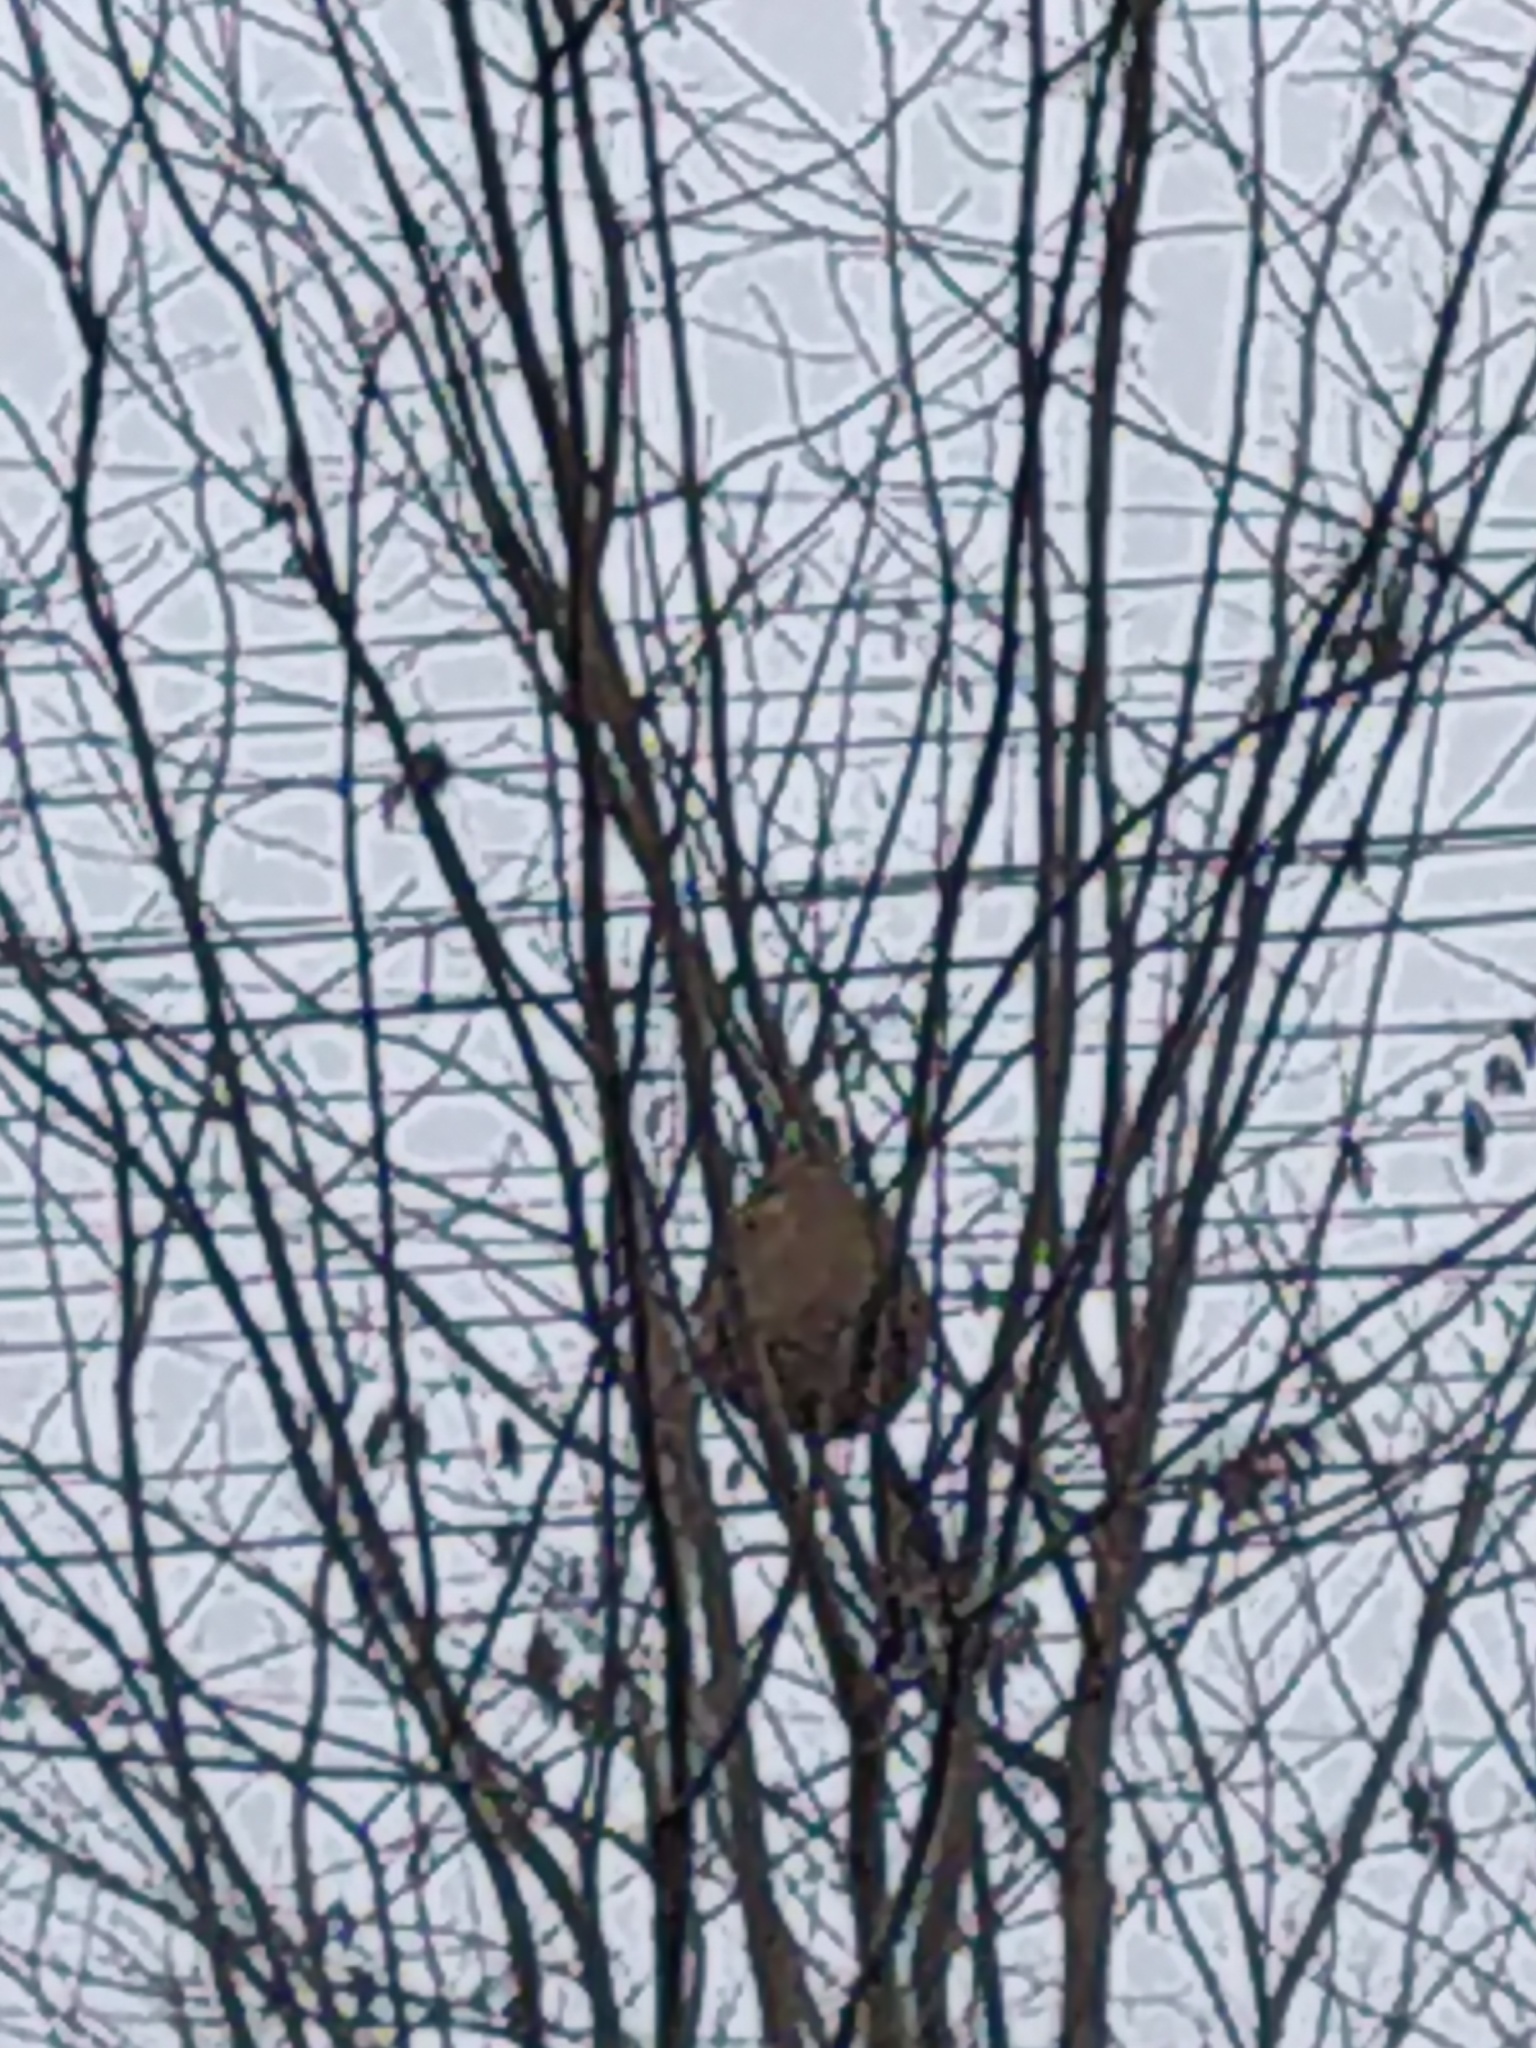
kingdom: Animalia
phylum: Arthropoda
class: Insecta
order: Hymenoptera
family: Vespidae
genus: Vespa
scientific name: Vespa velutina
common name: Asian hornet
